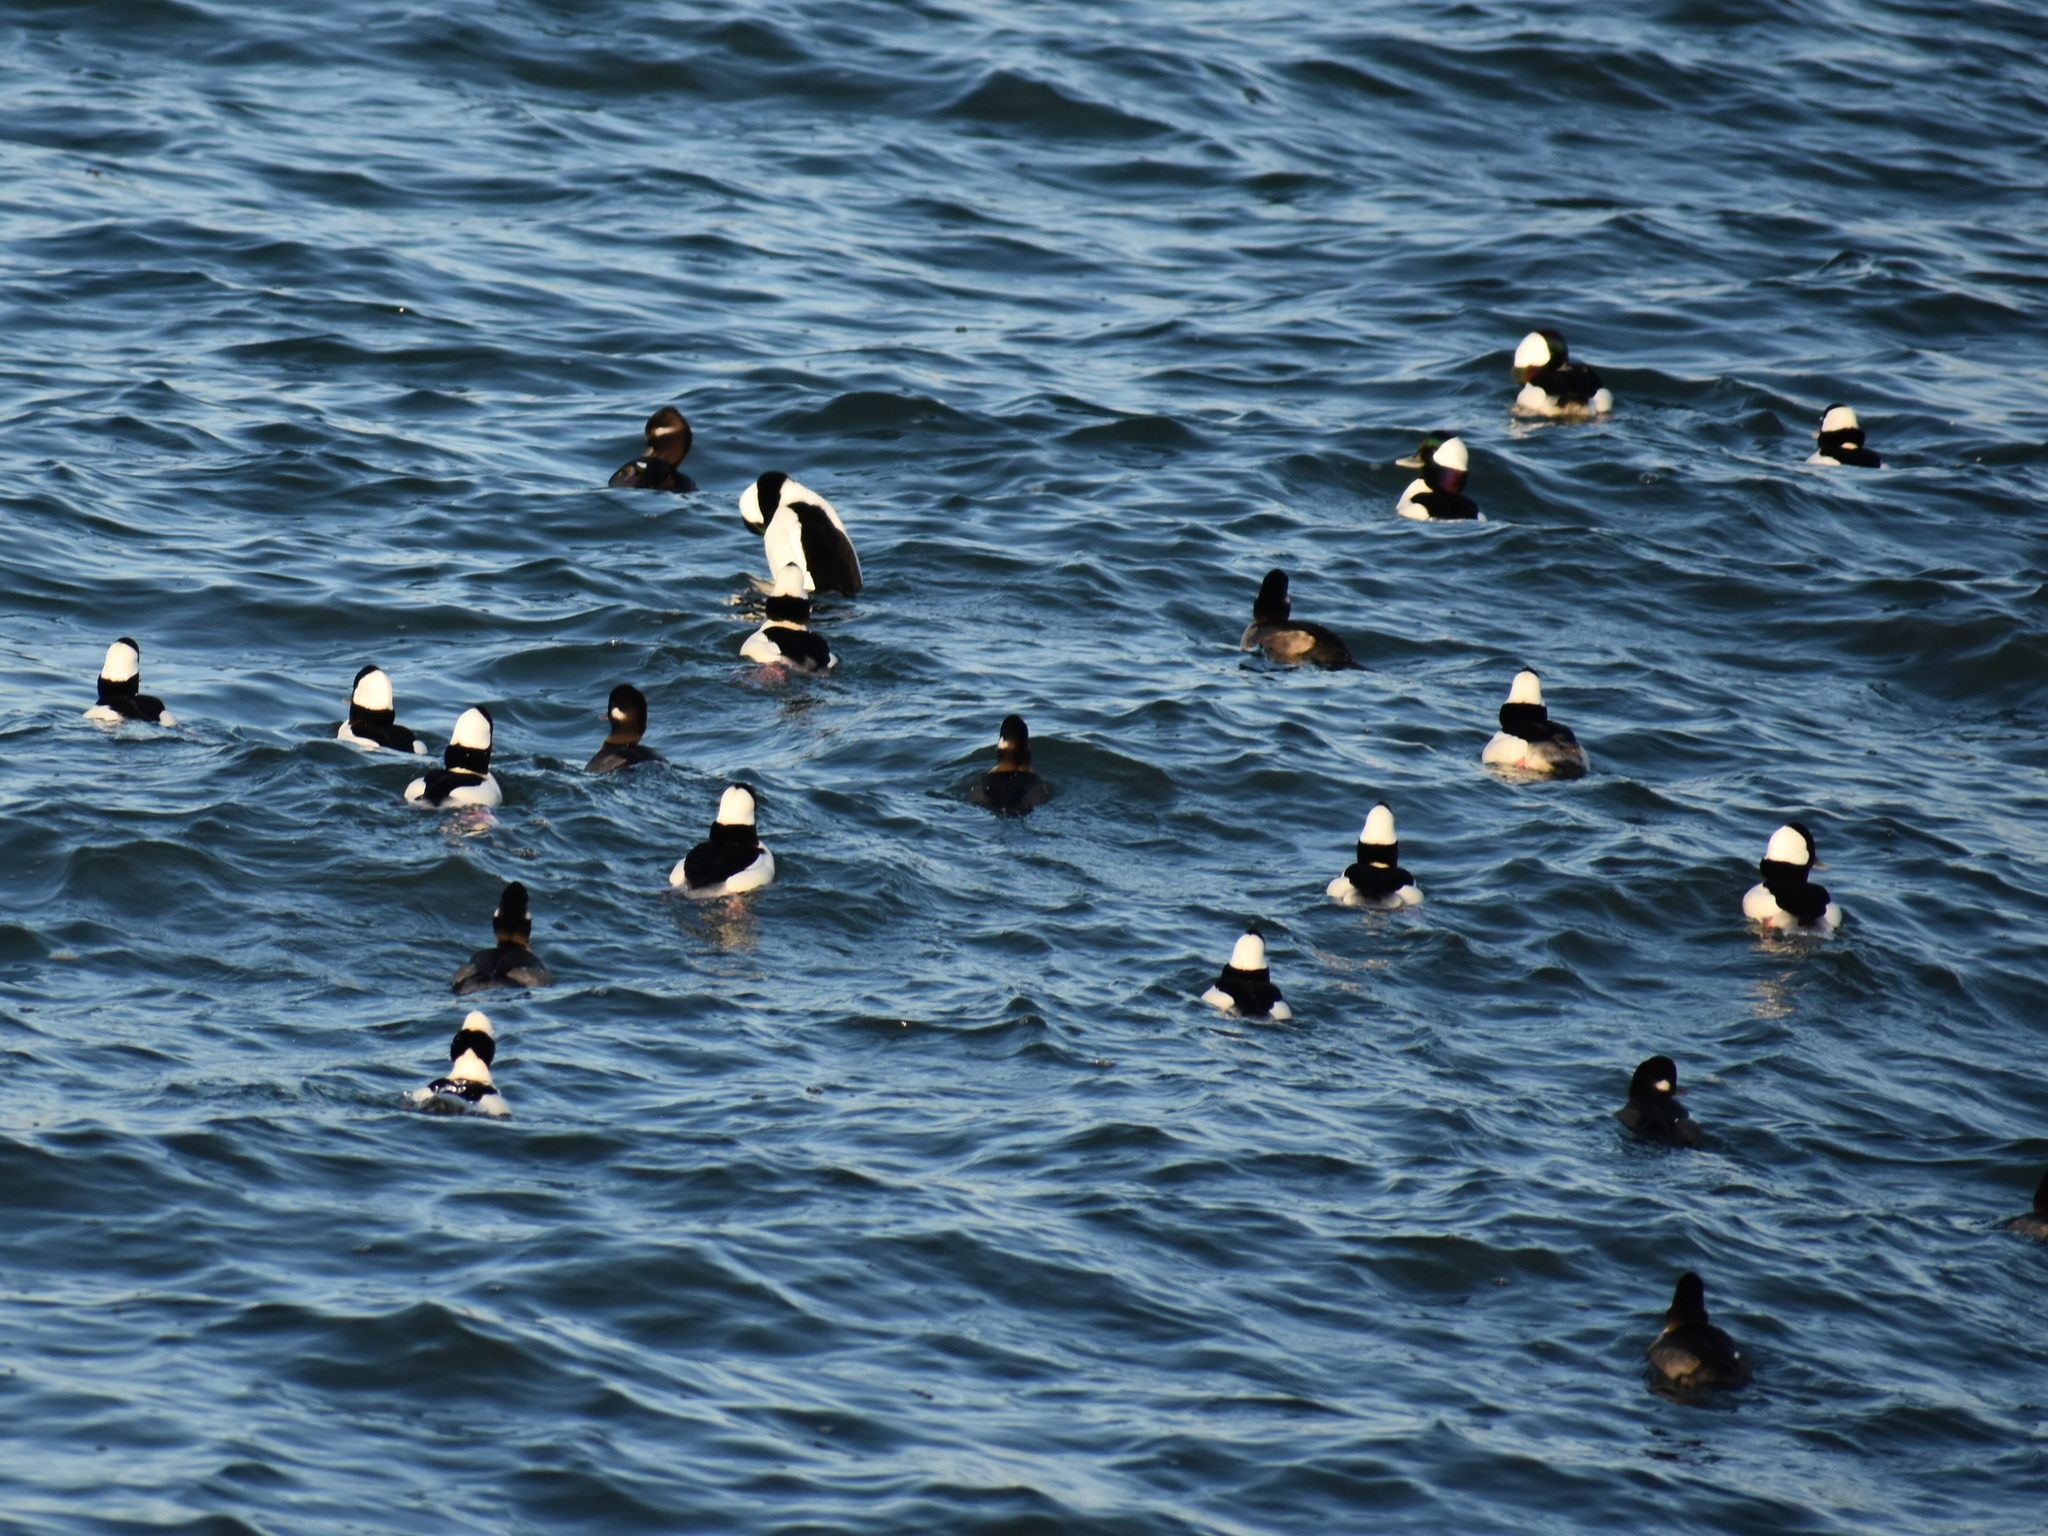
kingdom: Animalia
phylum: Chordata
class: Aves
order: Anseriformes
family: Anatidae
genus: Bucephala
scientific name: Bucephala albeola
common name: Bufflehead
